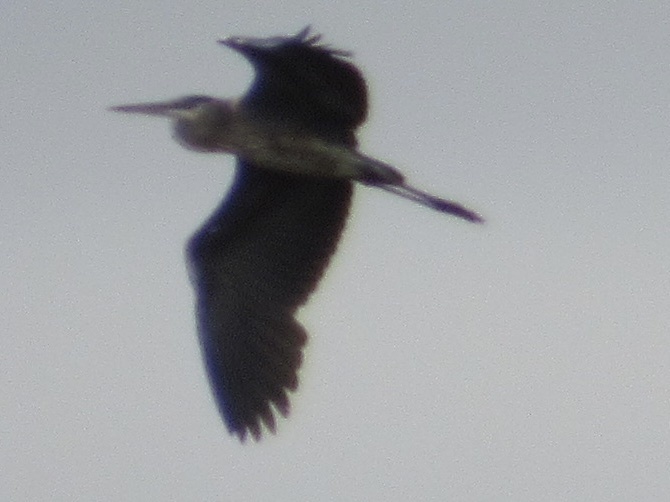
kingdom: Animalia
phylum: Chordata
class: Aves
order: Pelecaniformes
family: Ardeidae
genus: Ardea
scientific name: Ardea herodias
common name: Great blue heron
